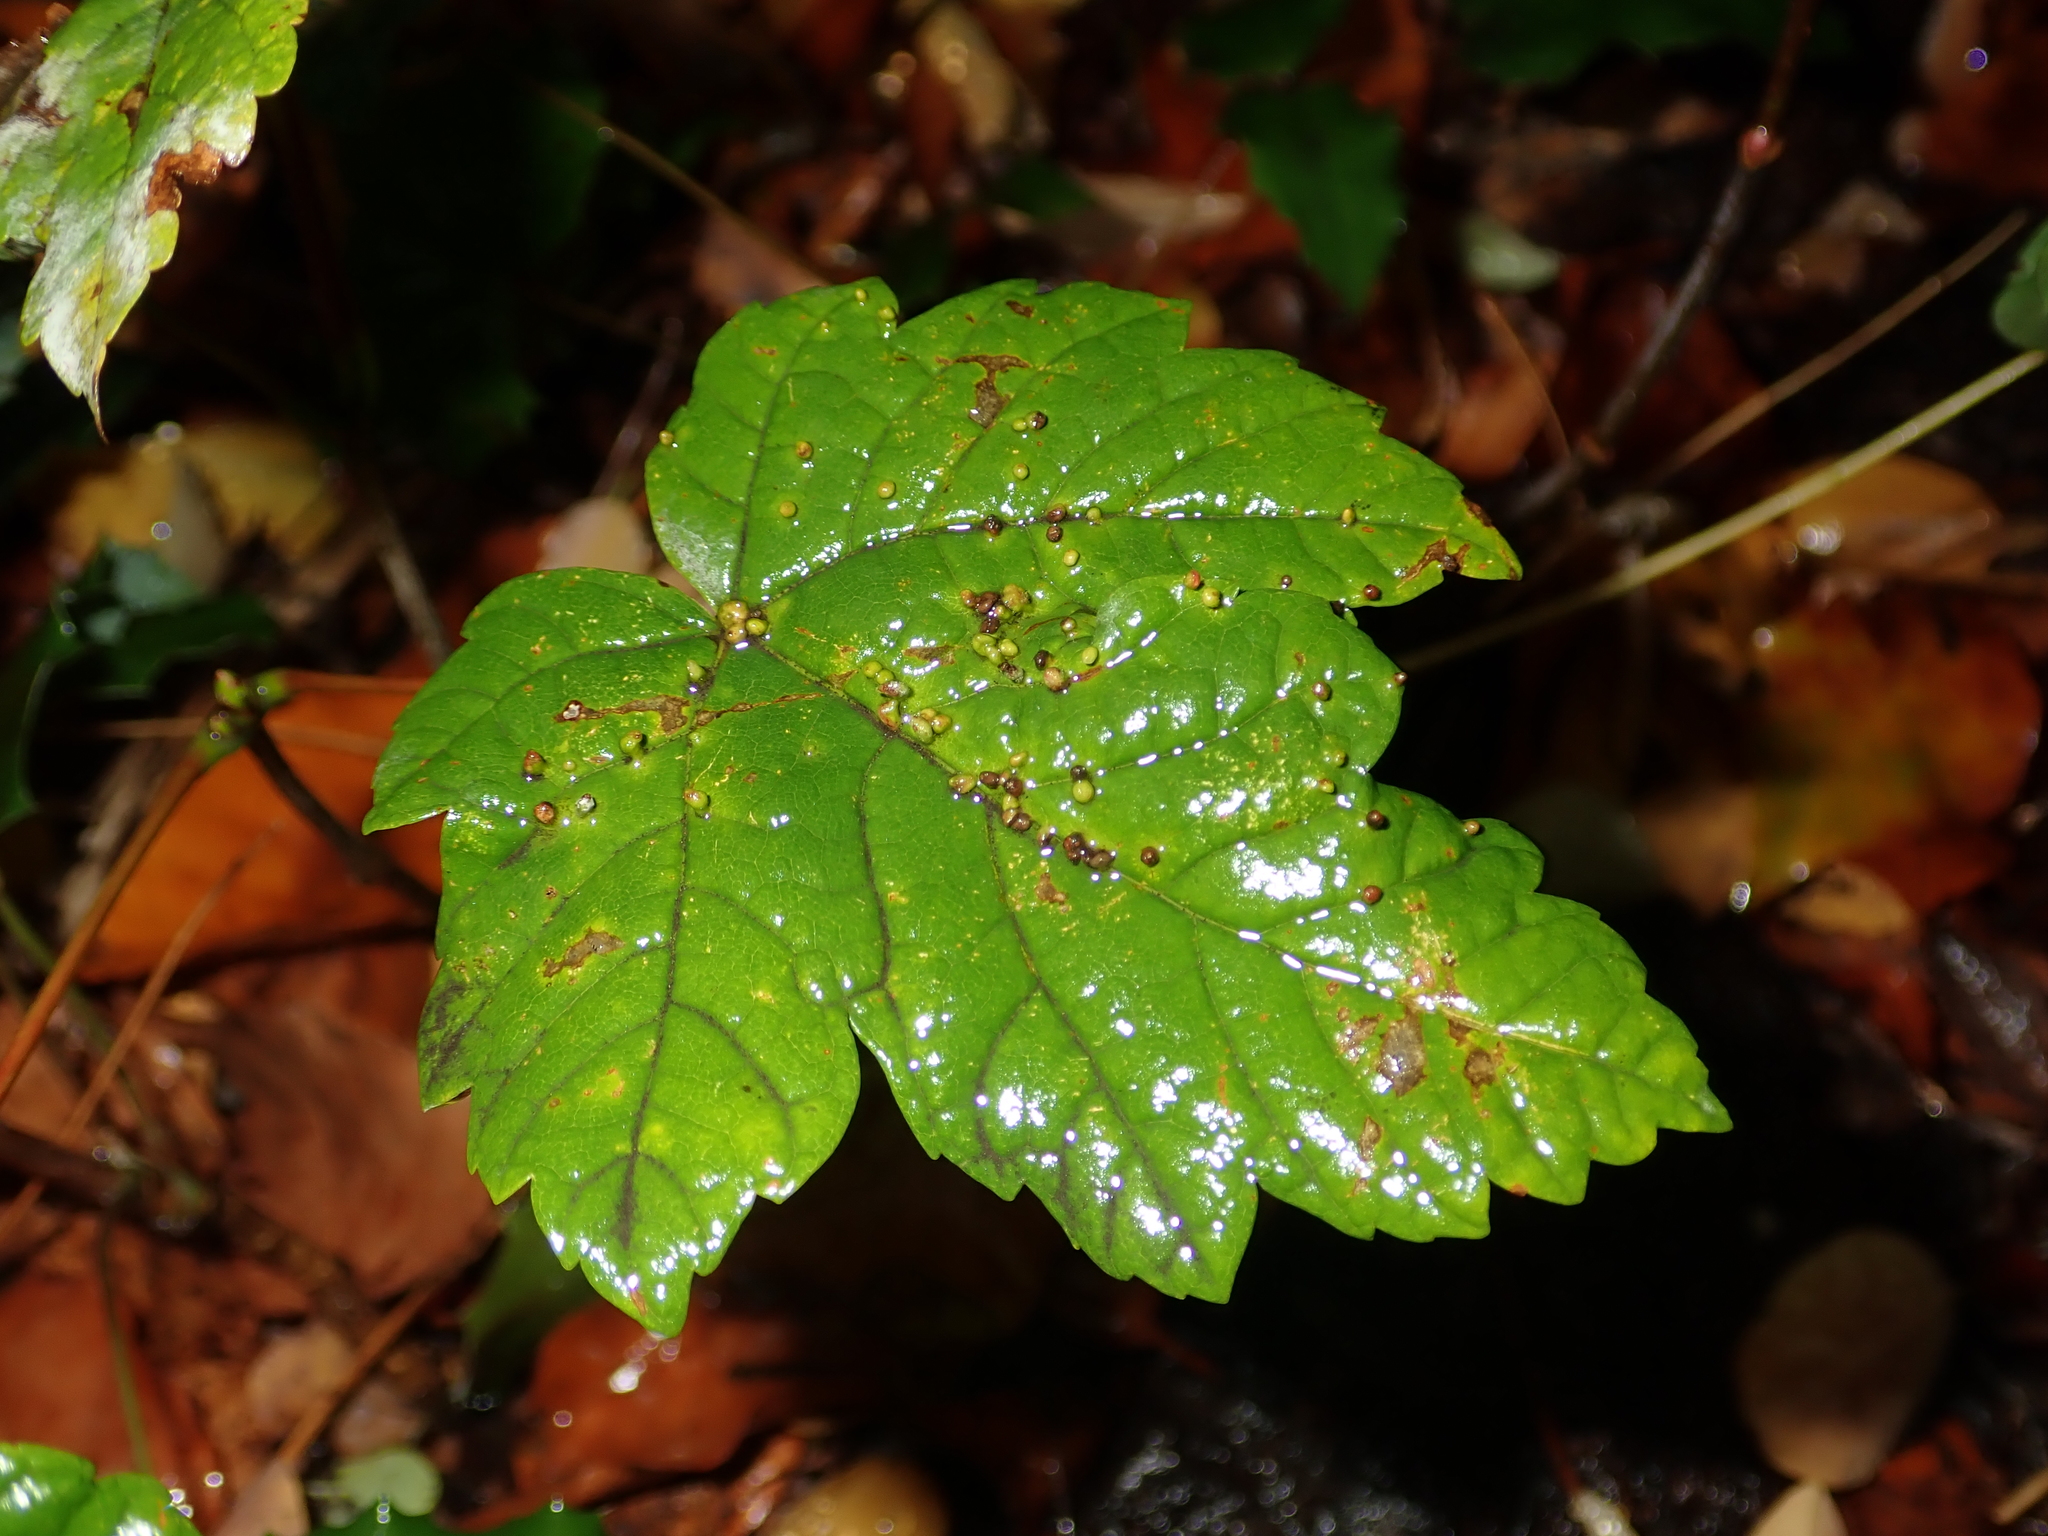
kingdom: Plantae
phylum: Tracheophyta
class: Magnoliopsida
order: Sapindales
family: Sapindaceae
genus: Acer
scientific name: Acer pseudoplatanus
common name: Sycamore
